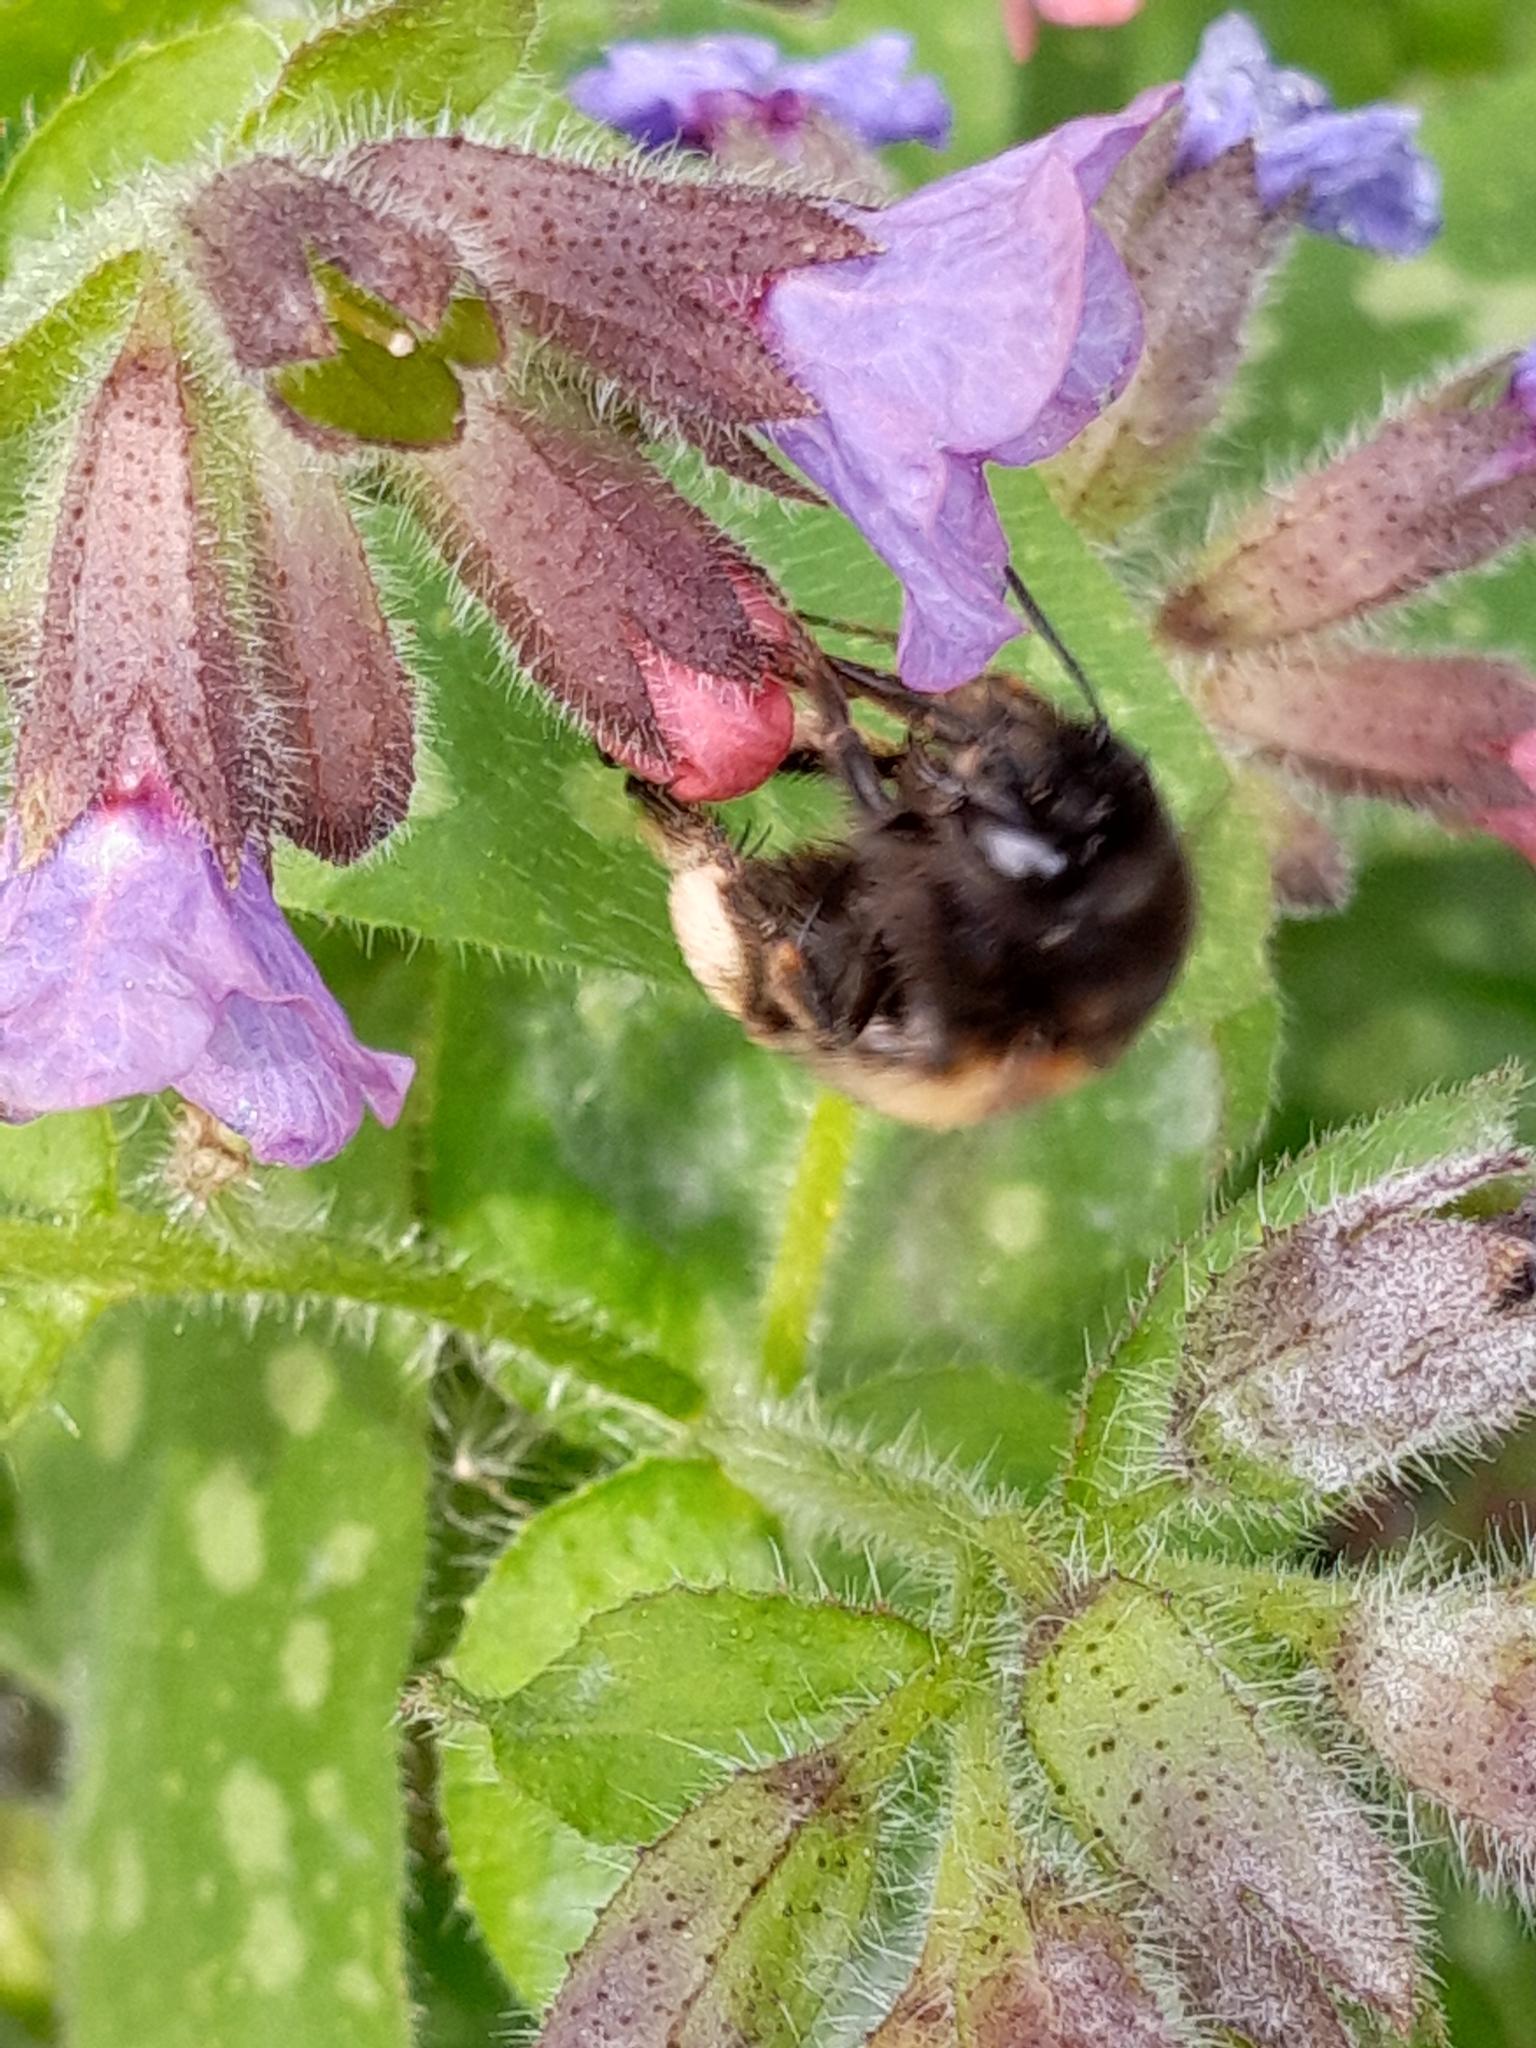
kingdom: Animalia
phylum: Arthropoda
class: Insecta
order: Hymenoptera
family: Apidae
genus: Anthophora
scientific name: Anthophora plumipes
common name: Hairy-footed flower bee
